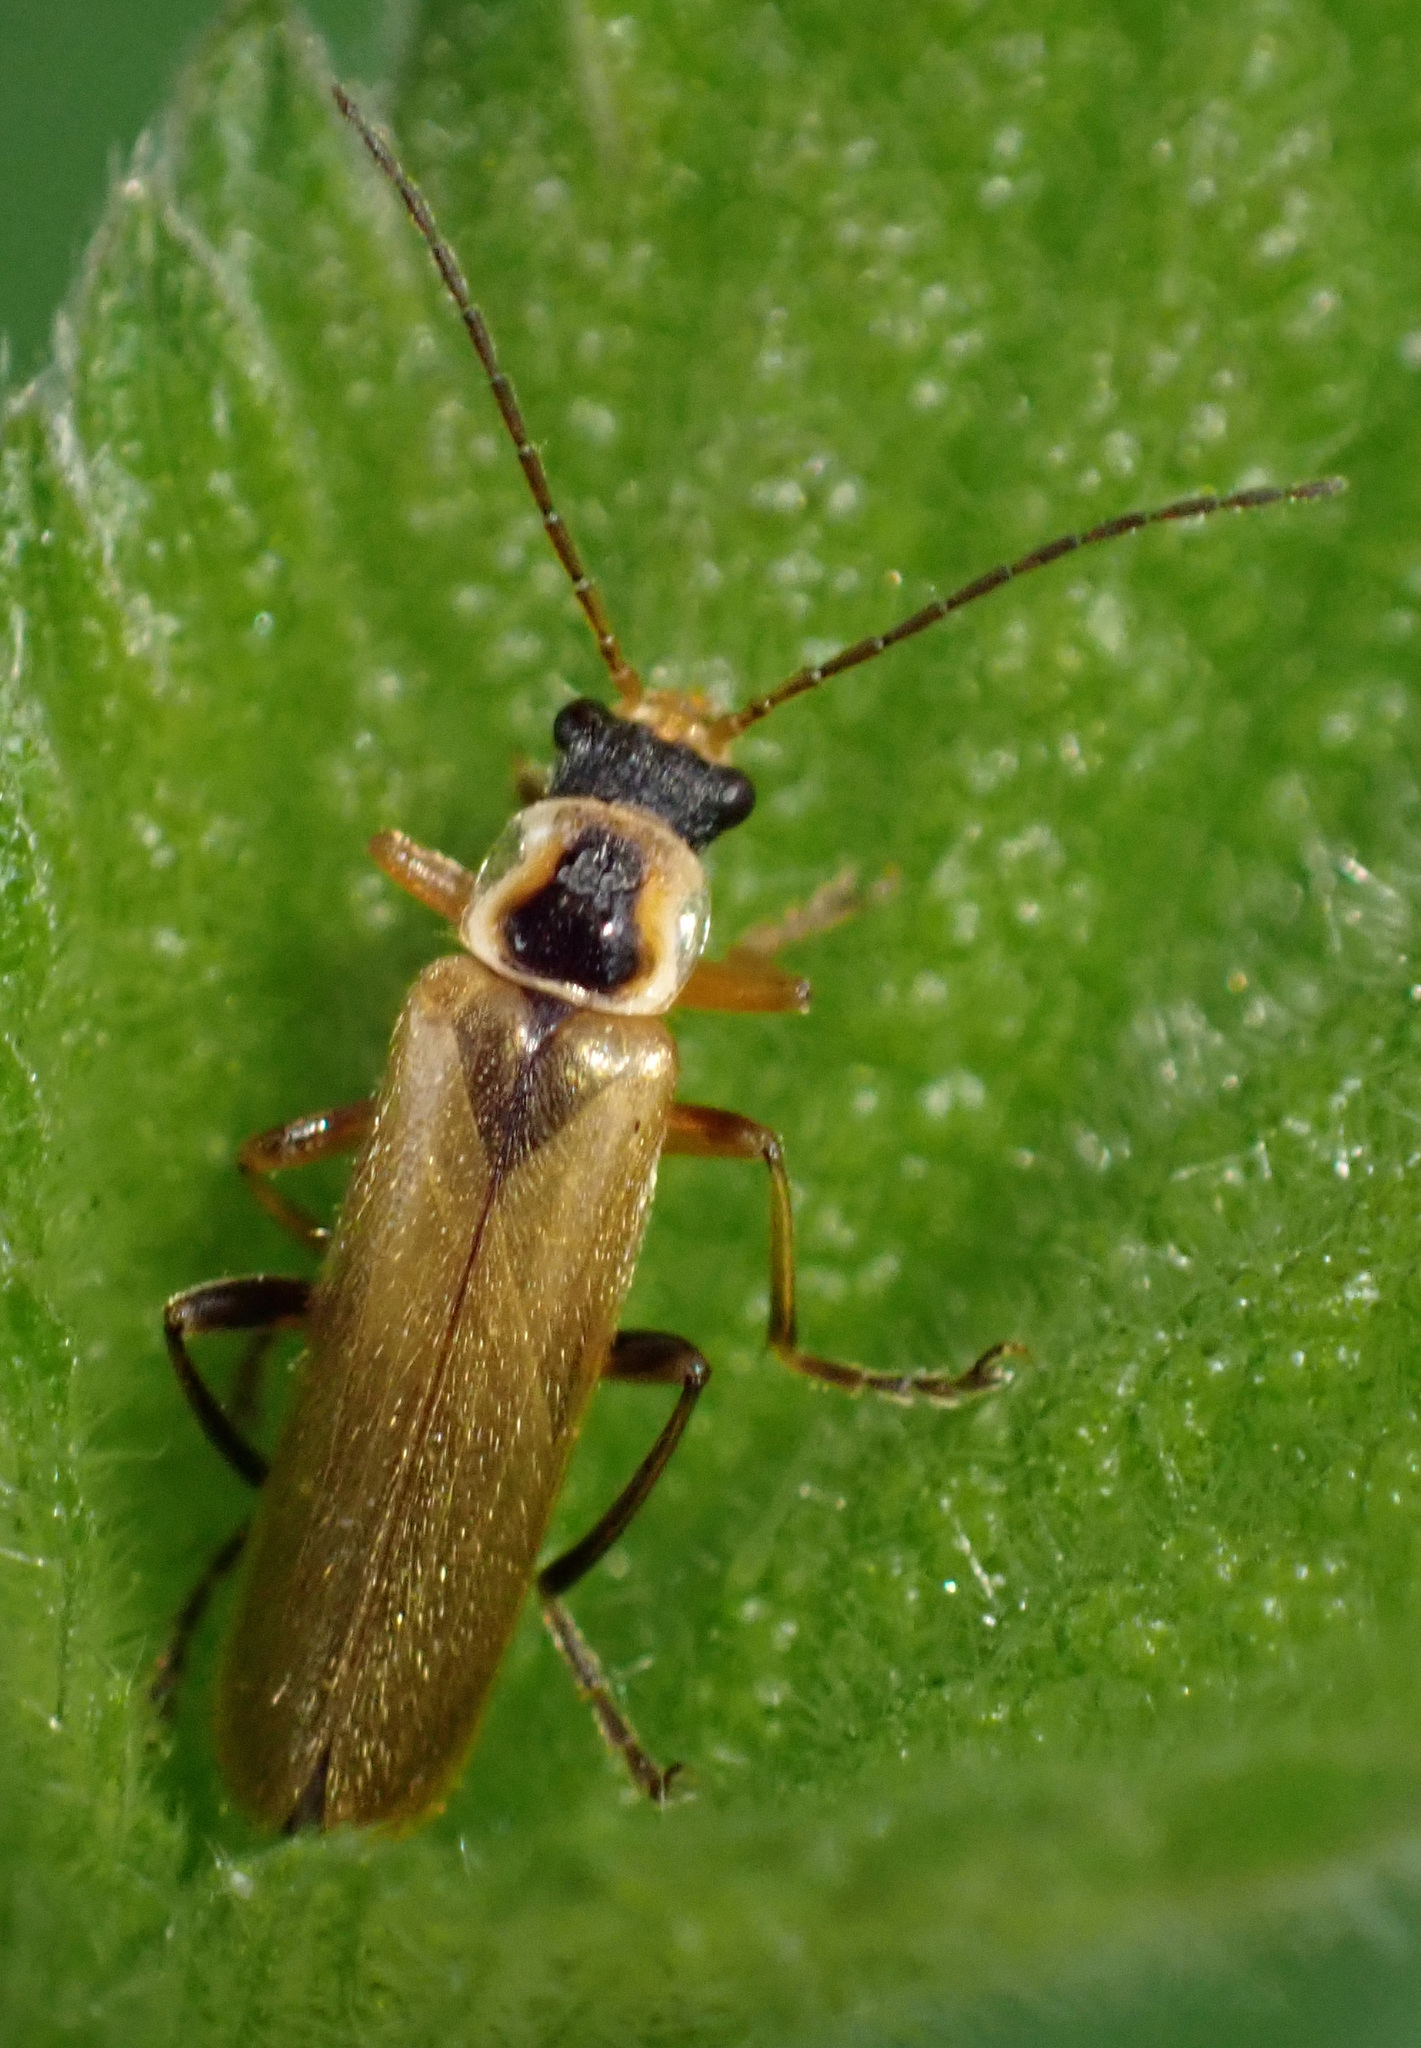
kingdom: Animalia
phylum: Arthropoda
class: Insecta
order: Coleoptera
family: Cantharidae
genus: Cantharis
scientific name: Cantharis decipiens
